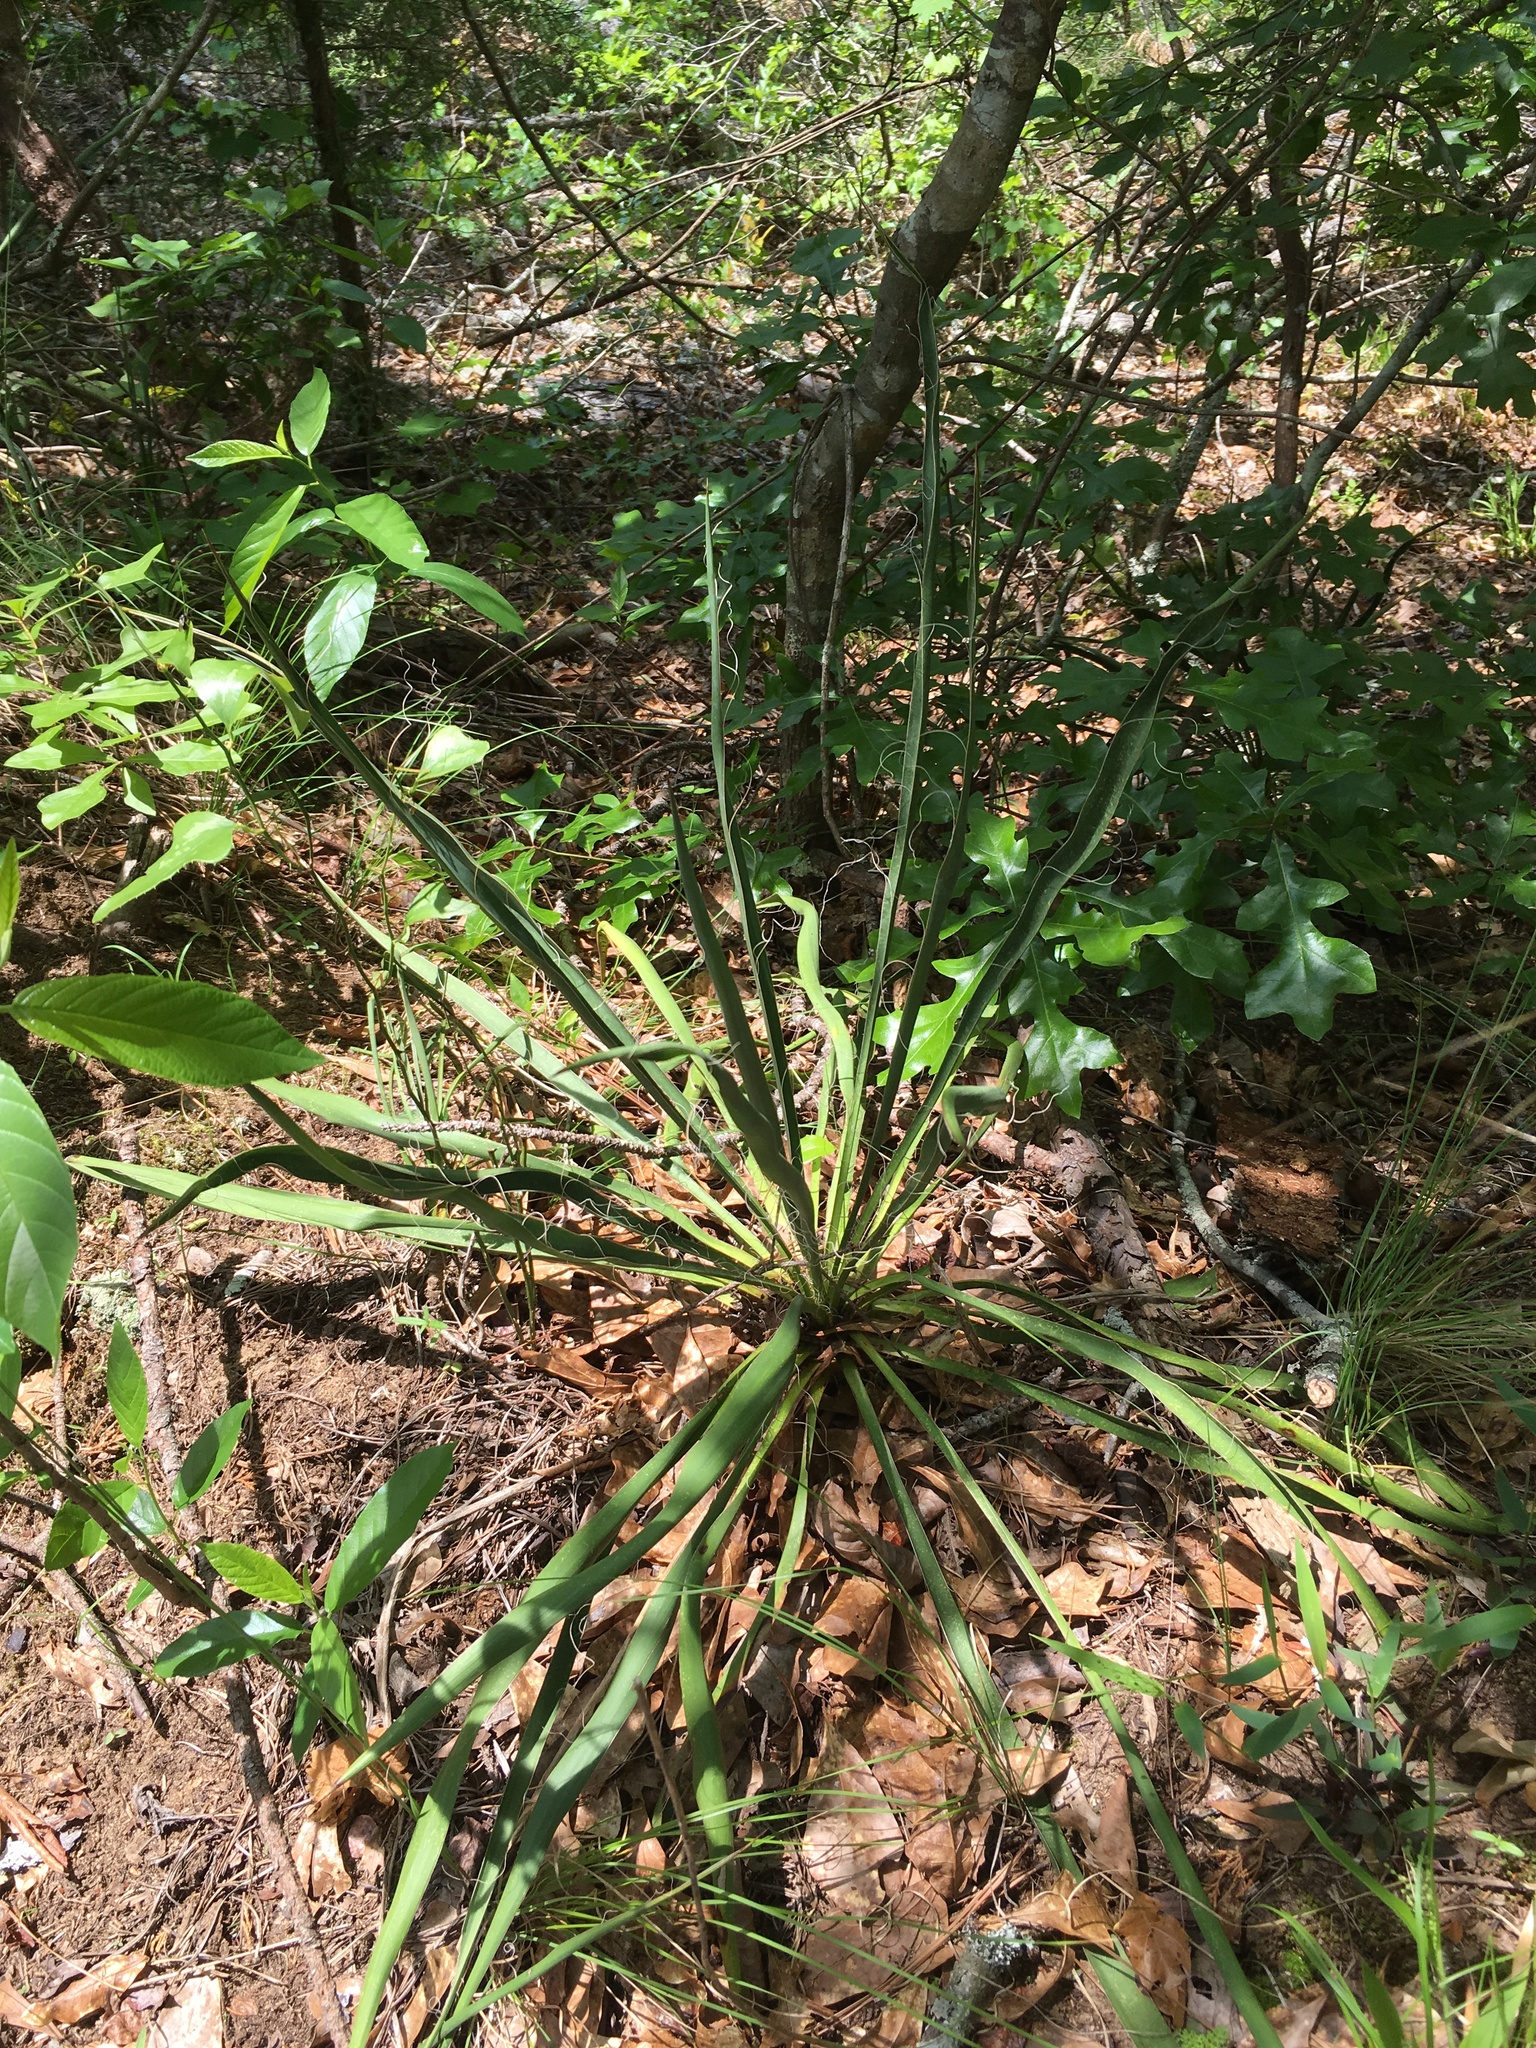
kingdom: Plantae
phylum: Tracheophyta
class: Liliopsida
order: Asparagales
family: Asparagaceae
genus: Yucca
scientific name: Yucca filamentosa
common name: Adam's-needle
